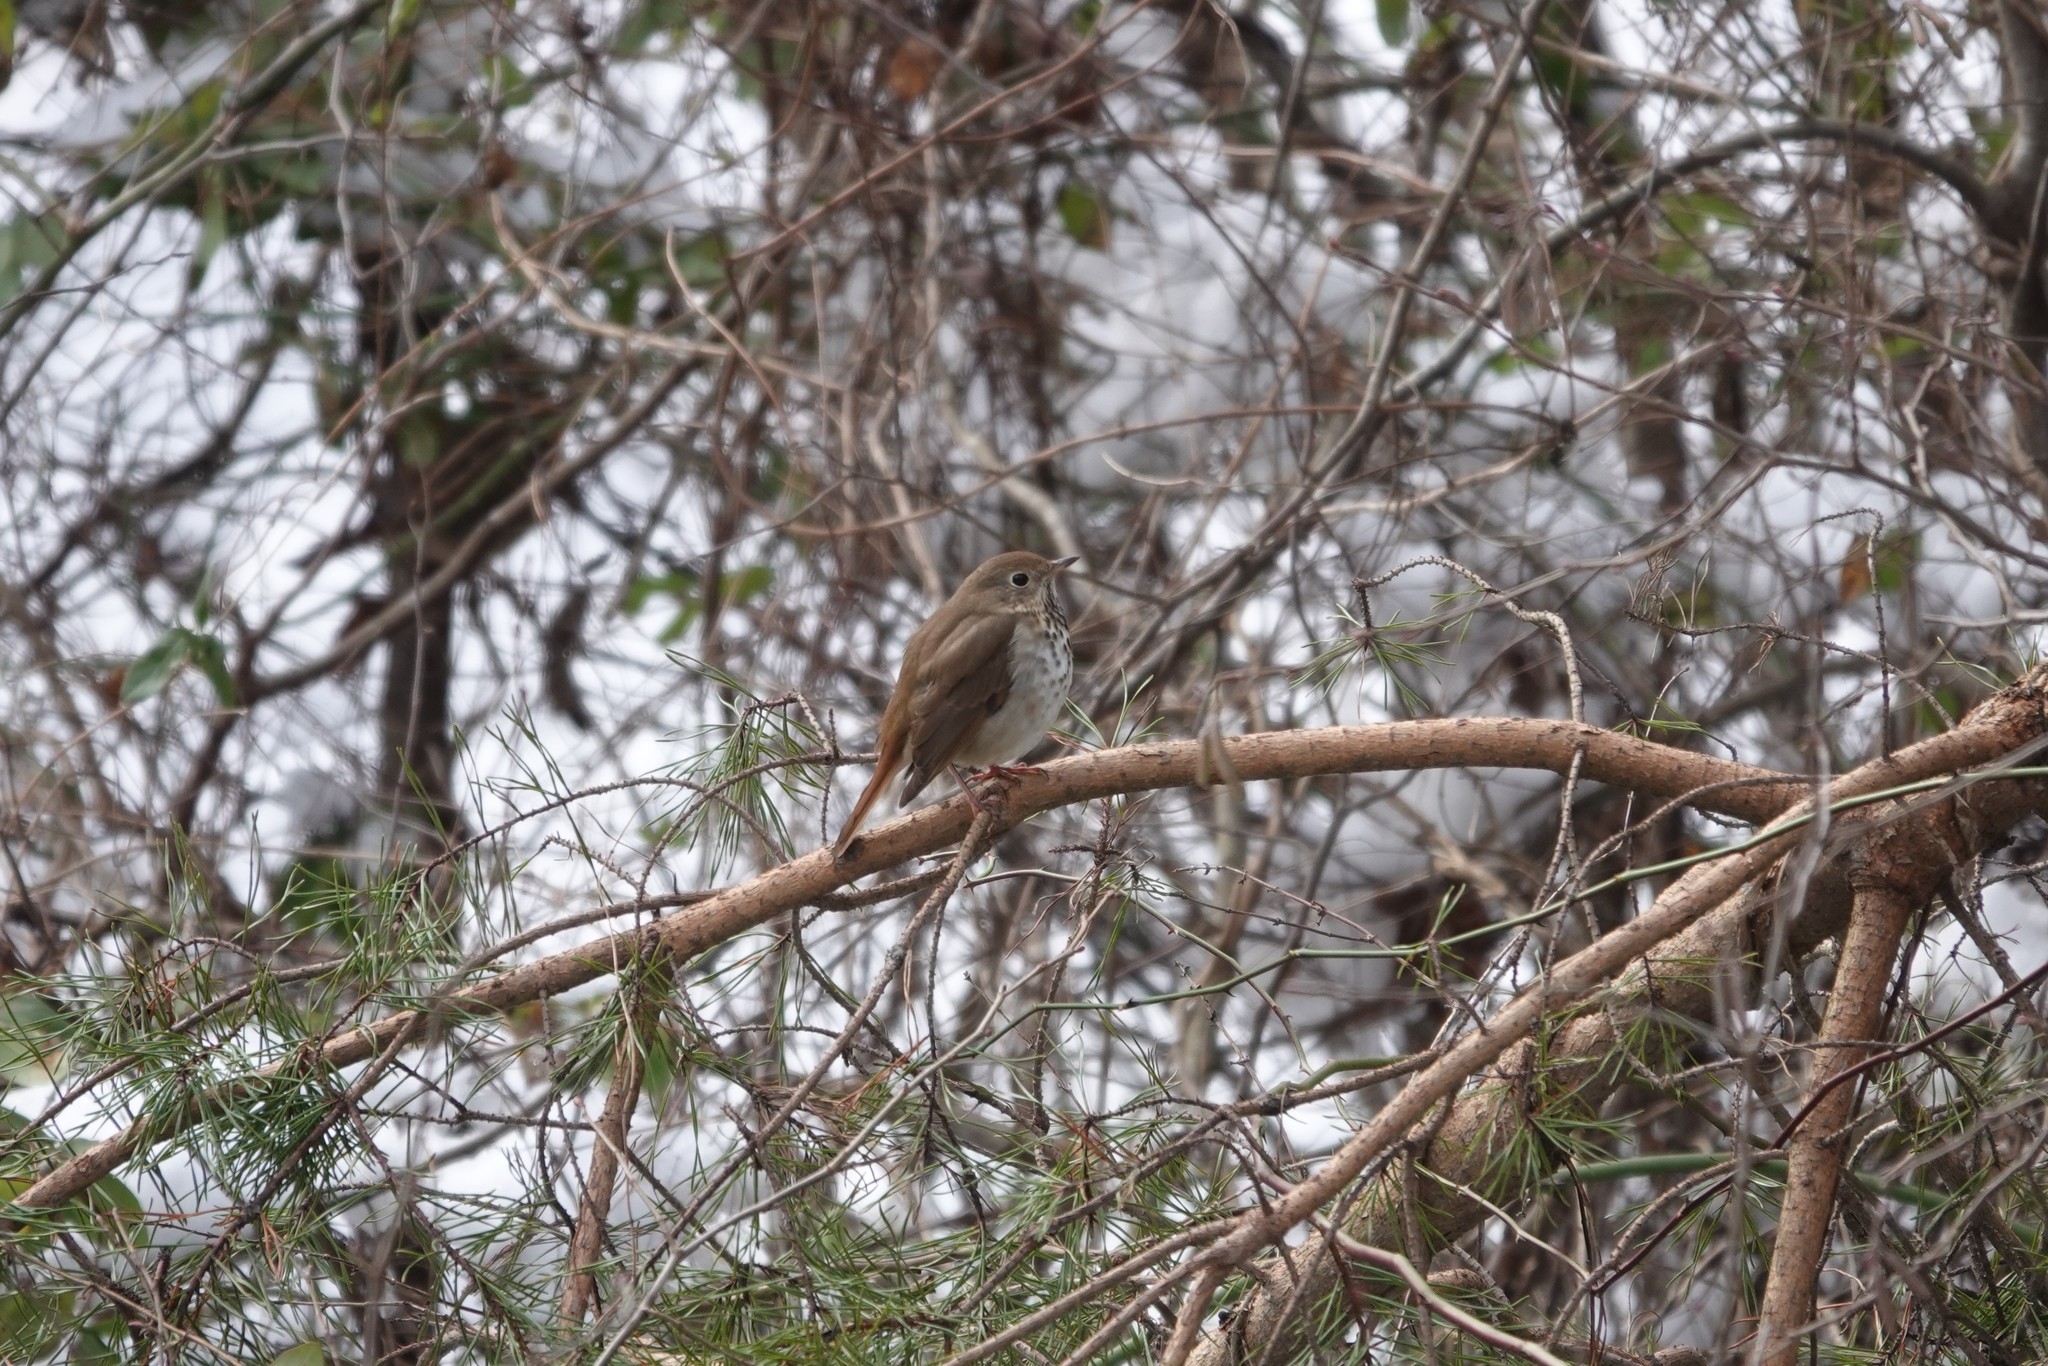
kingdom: Animalia
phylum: Chordata
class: Aves
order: Passeriformes
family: Turdidae
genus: Catharus
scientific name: Catharus guttatus
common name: Hermit thrush
